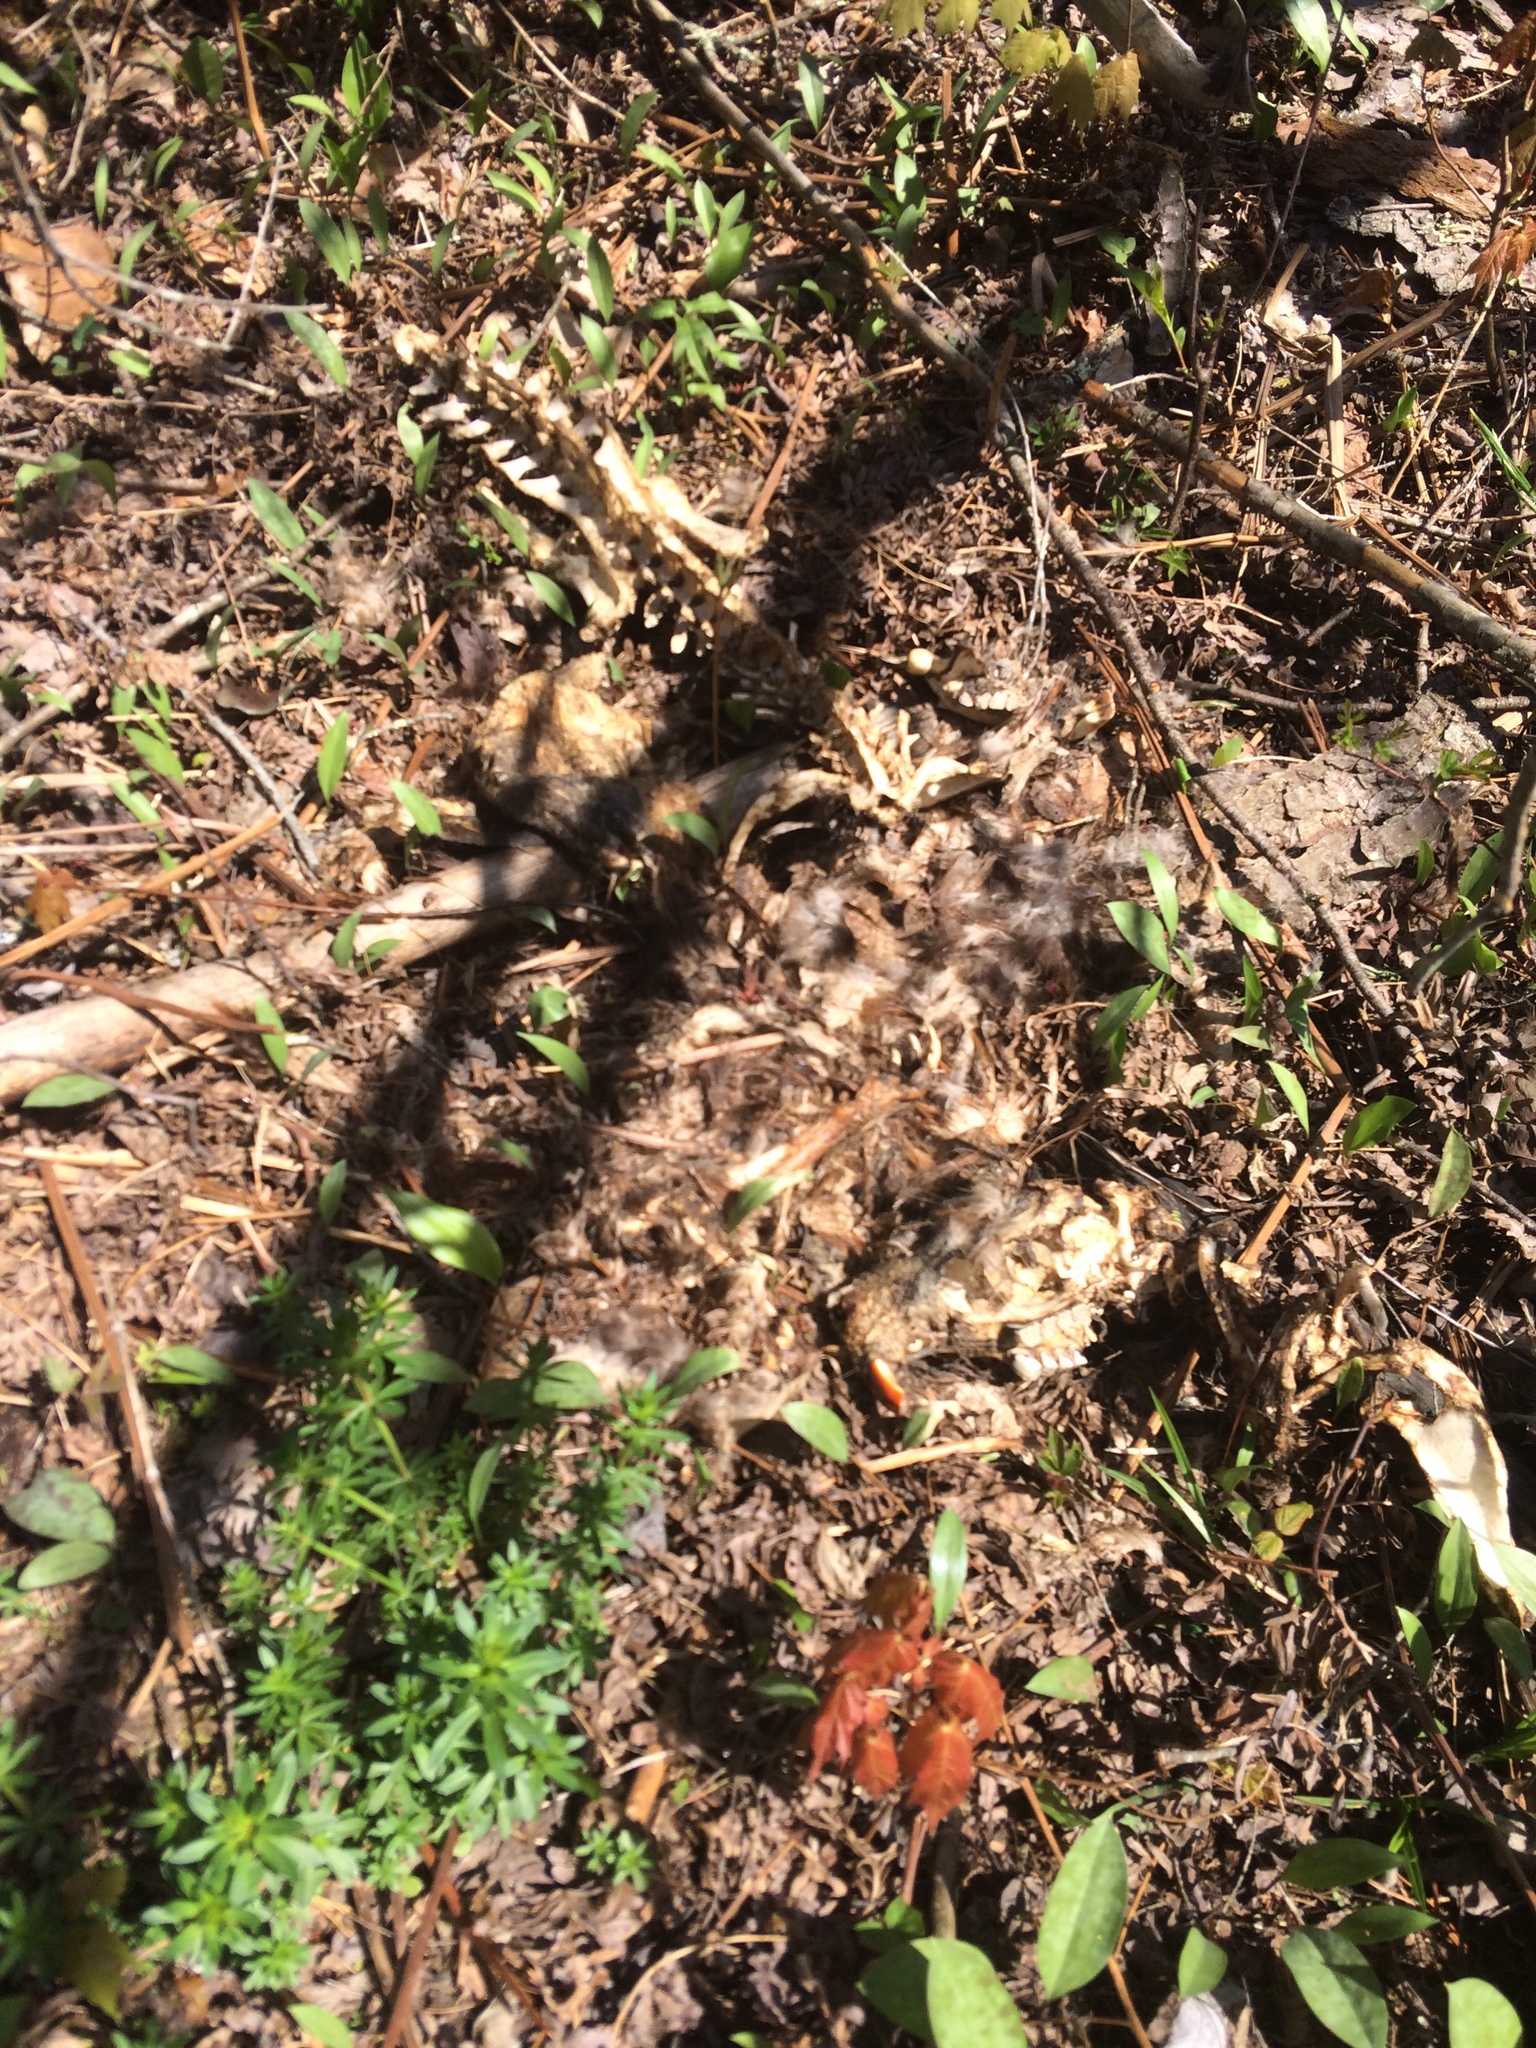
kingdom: Animalia
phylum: Chordata
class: Mammalia
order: Rodentia
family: Castoridae
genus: Castor
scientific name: Castor canadensis
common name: American beaver
